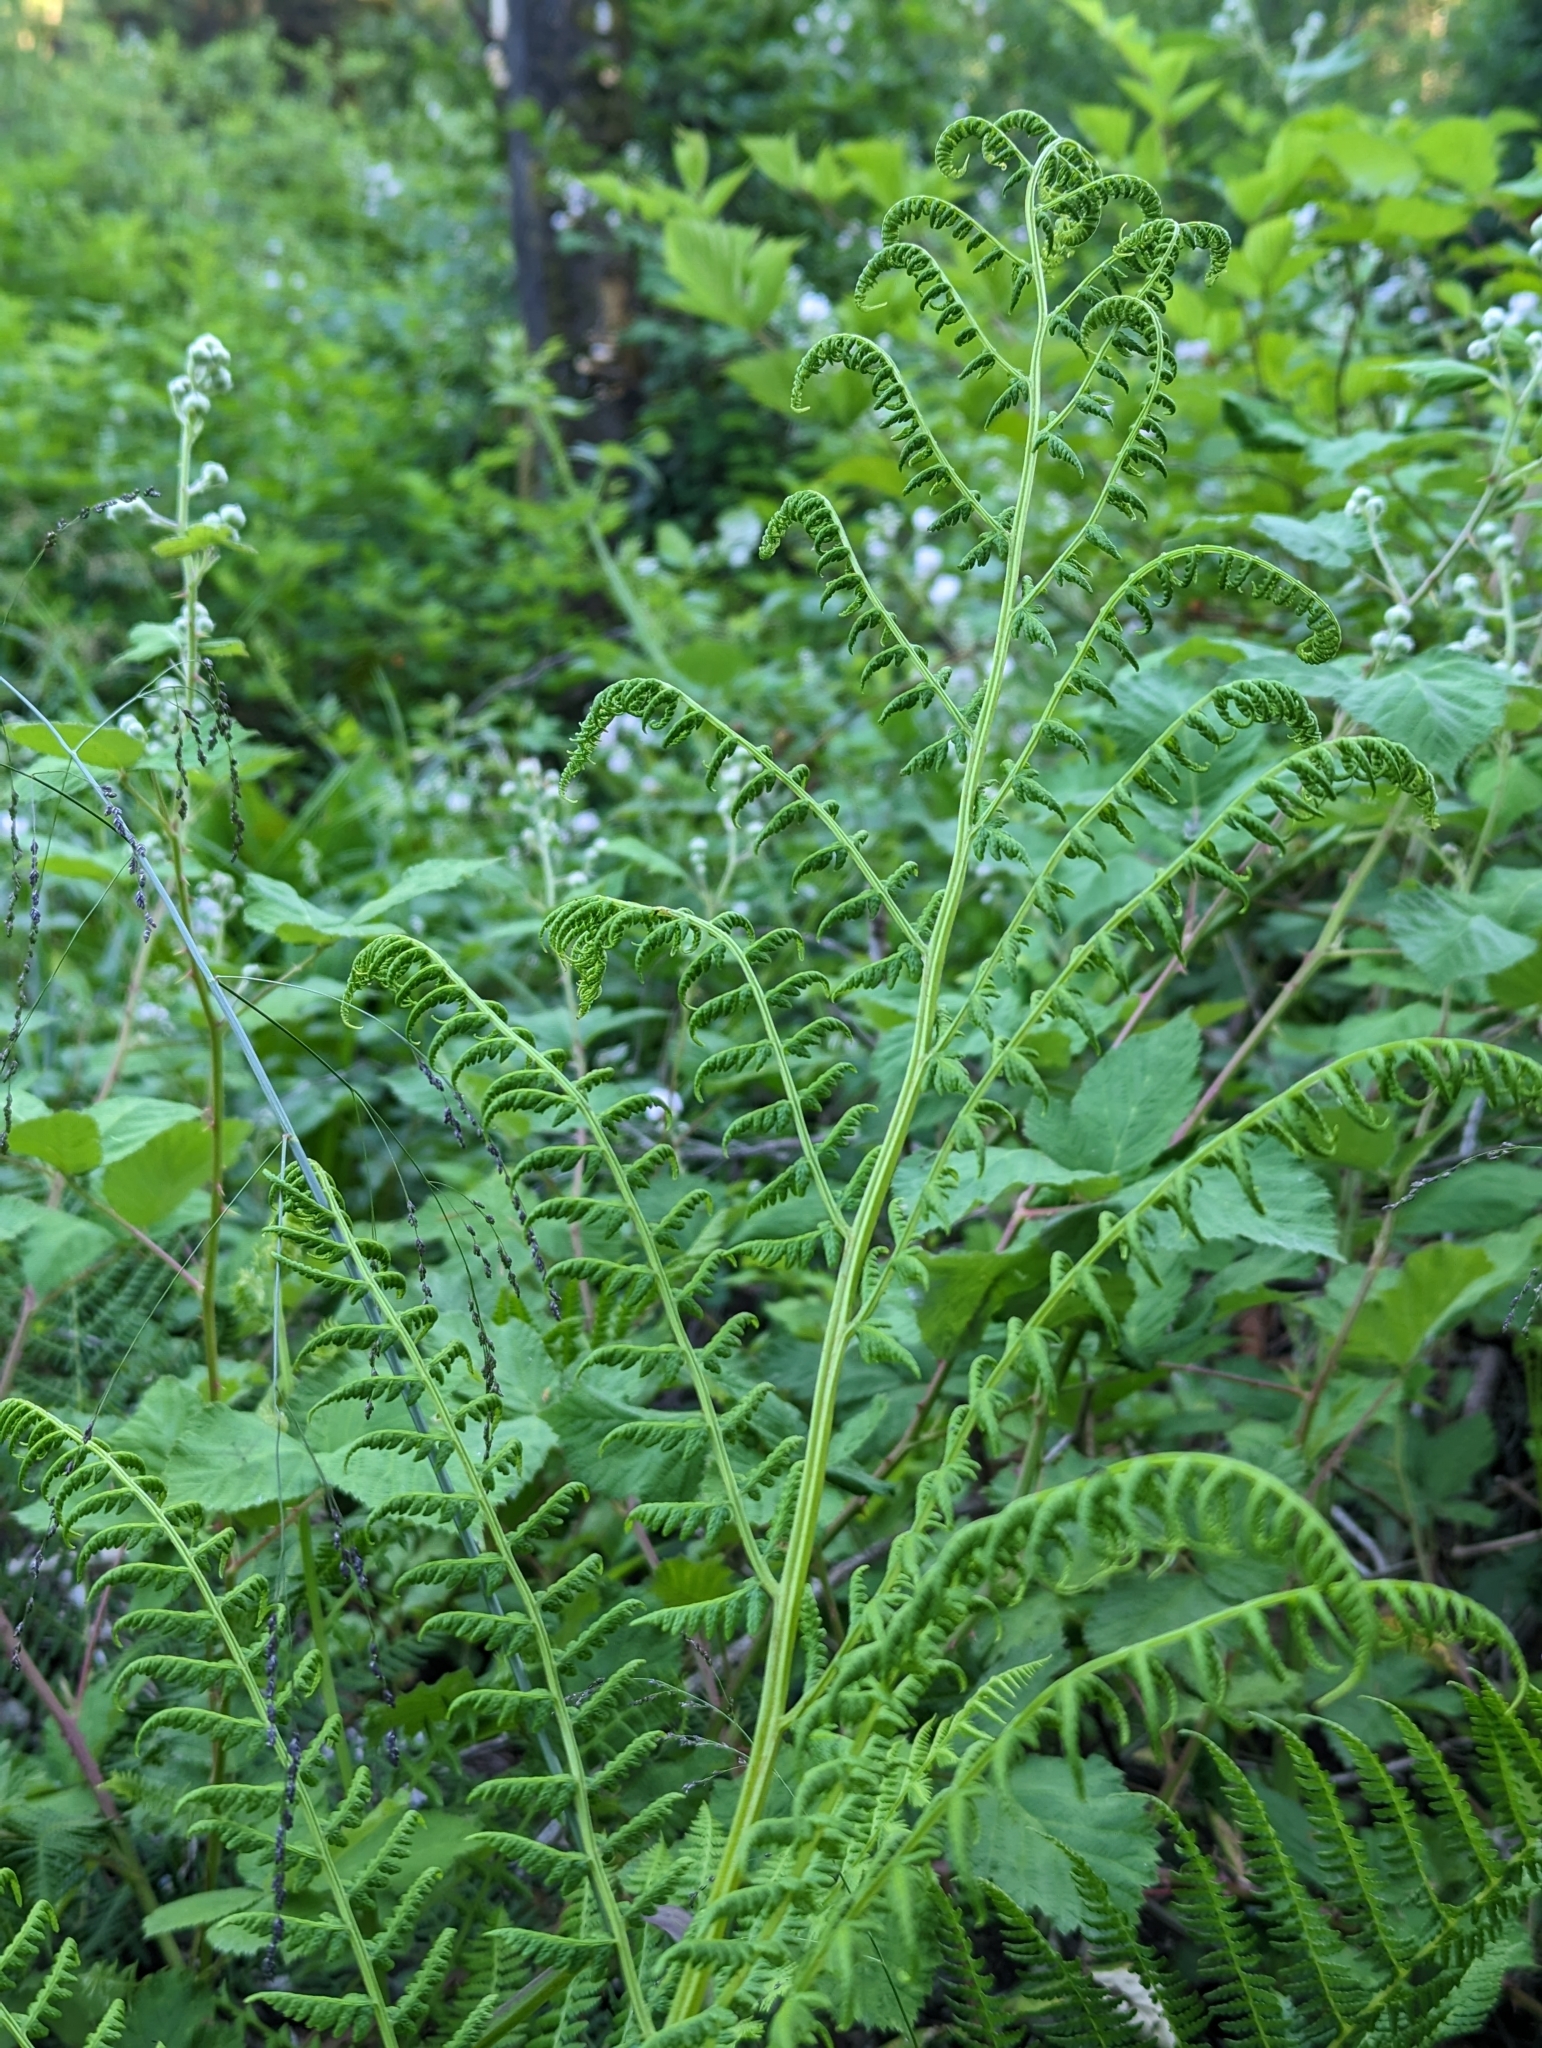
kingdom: Plantae
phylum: Tracheophyta
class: Polypodiopsida
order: Polypodiales
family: Athyriaceae
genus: Athyrium
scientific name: Athyrium filix-femina
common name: Lady fern
